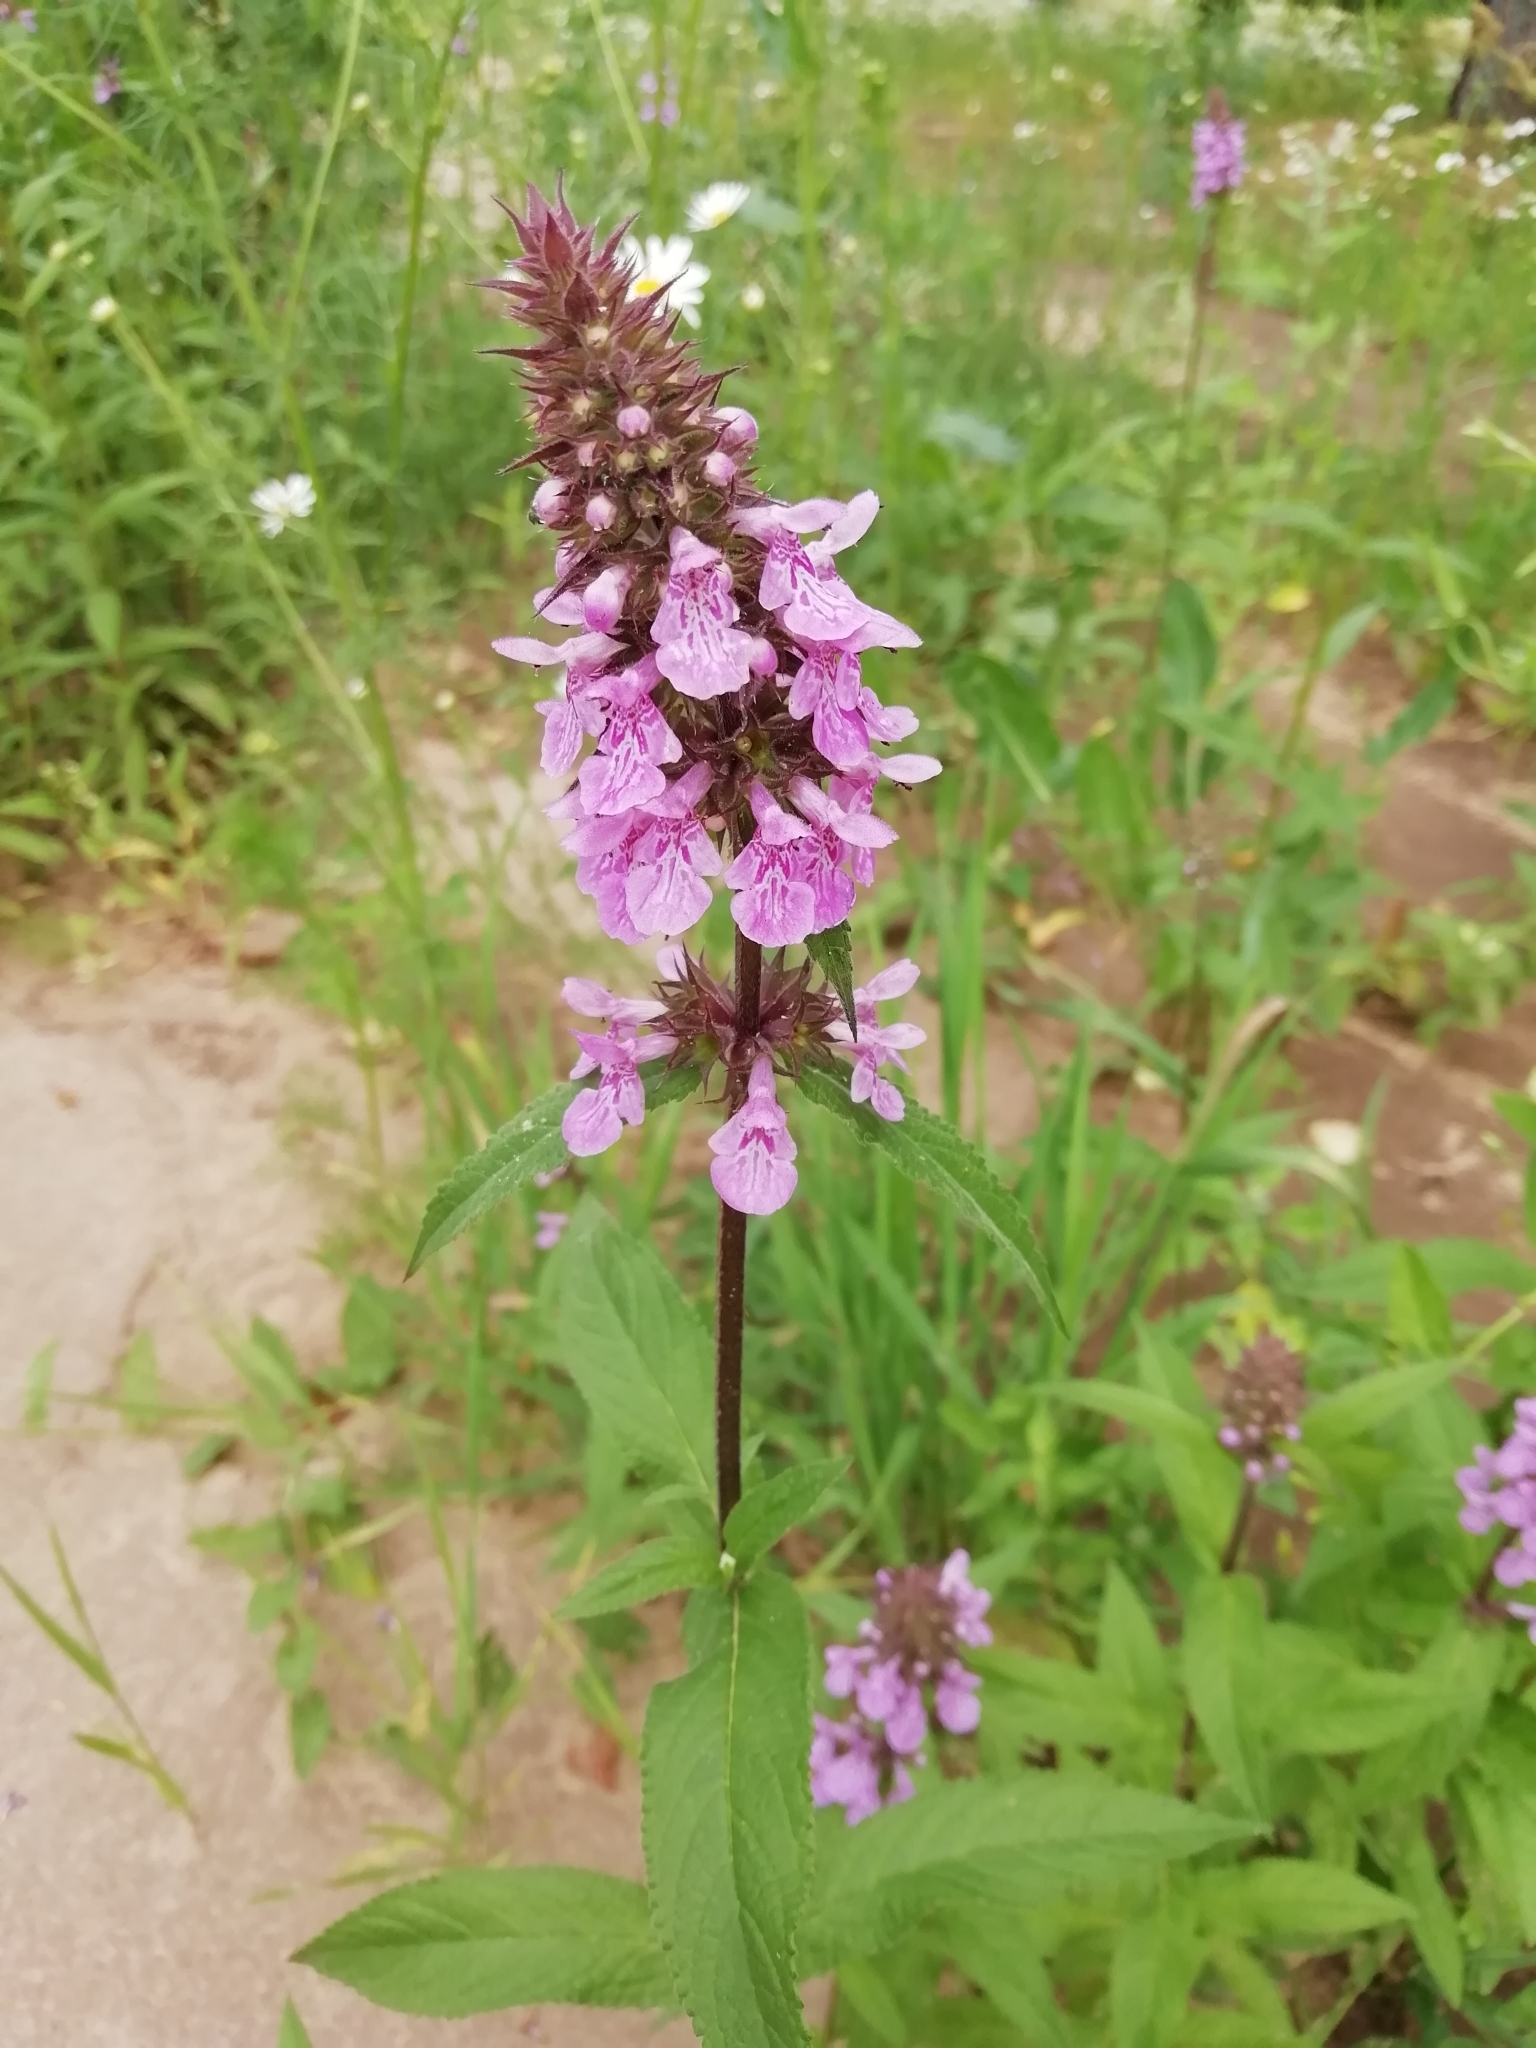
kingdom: Plantae
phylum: Tracheophyta
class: Magnoliopsida
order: Lamiales
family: Lamiaceae
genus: Stachys
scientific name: Stachys palustris
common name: Marsh woundwort
